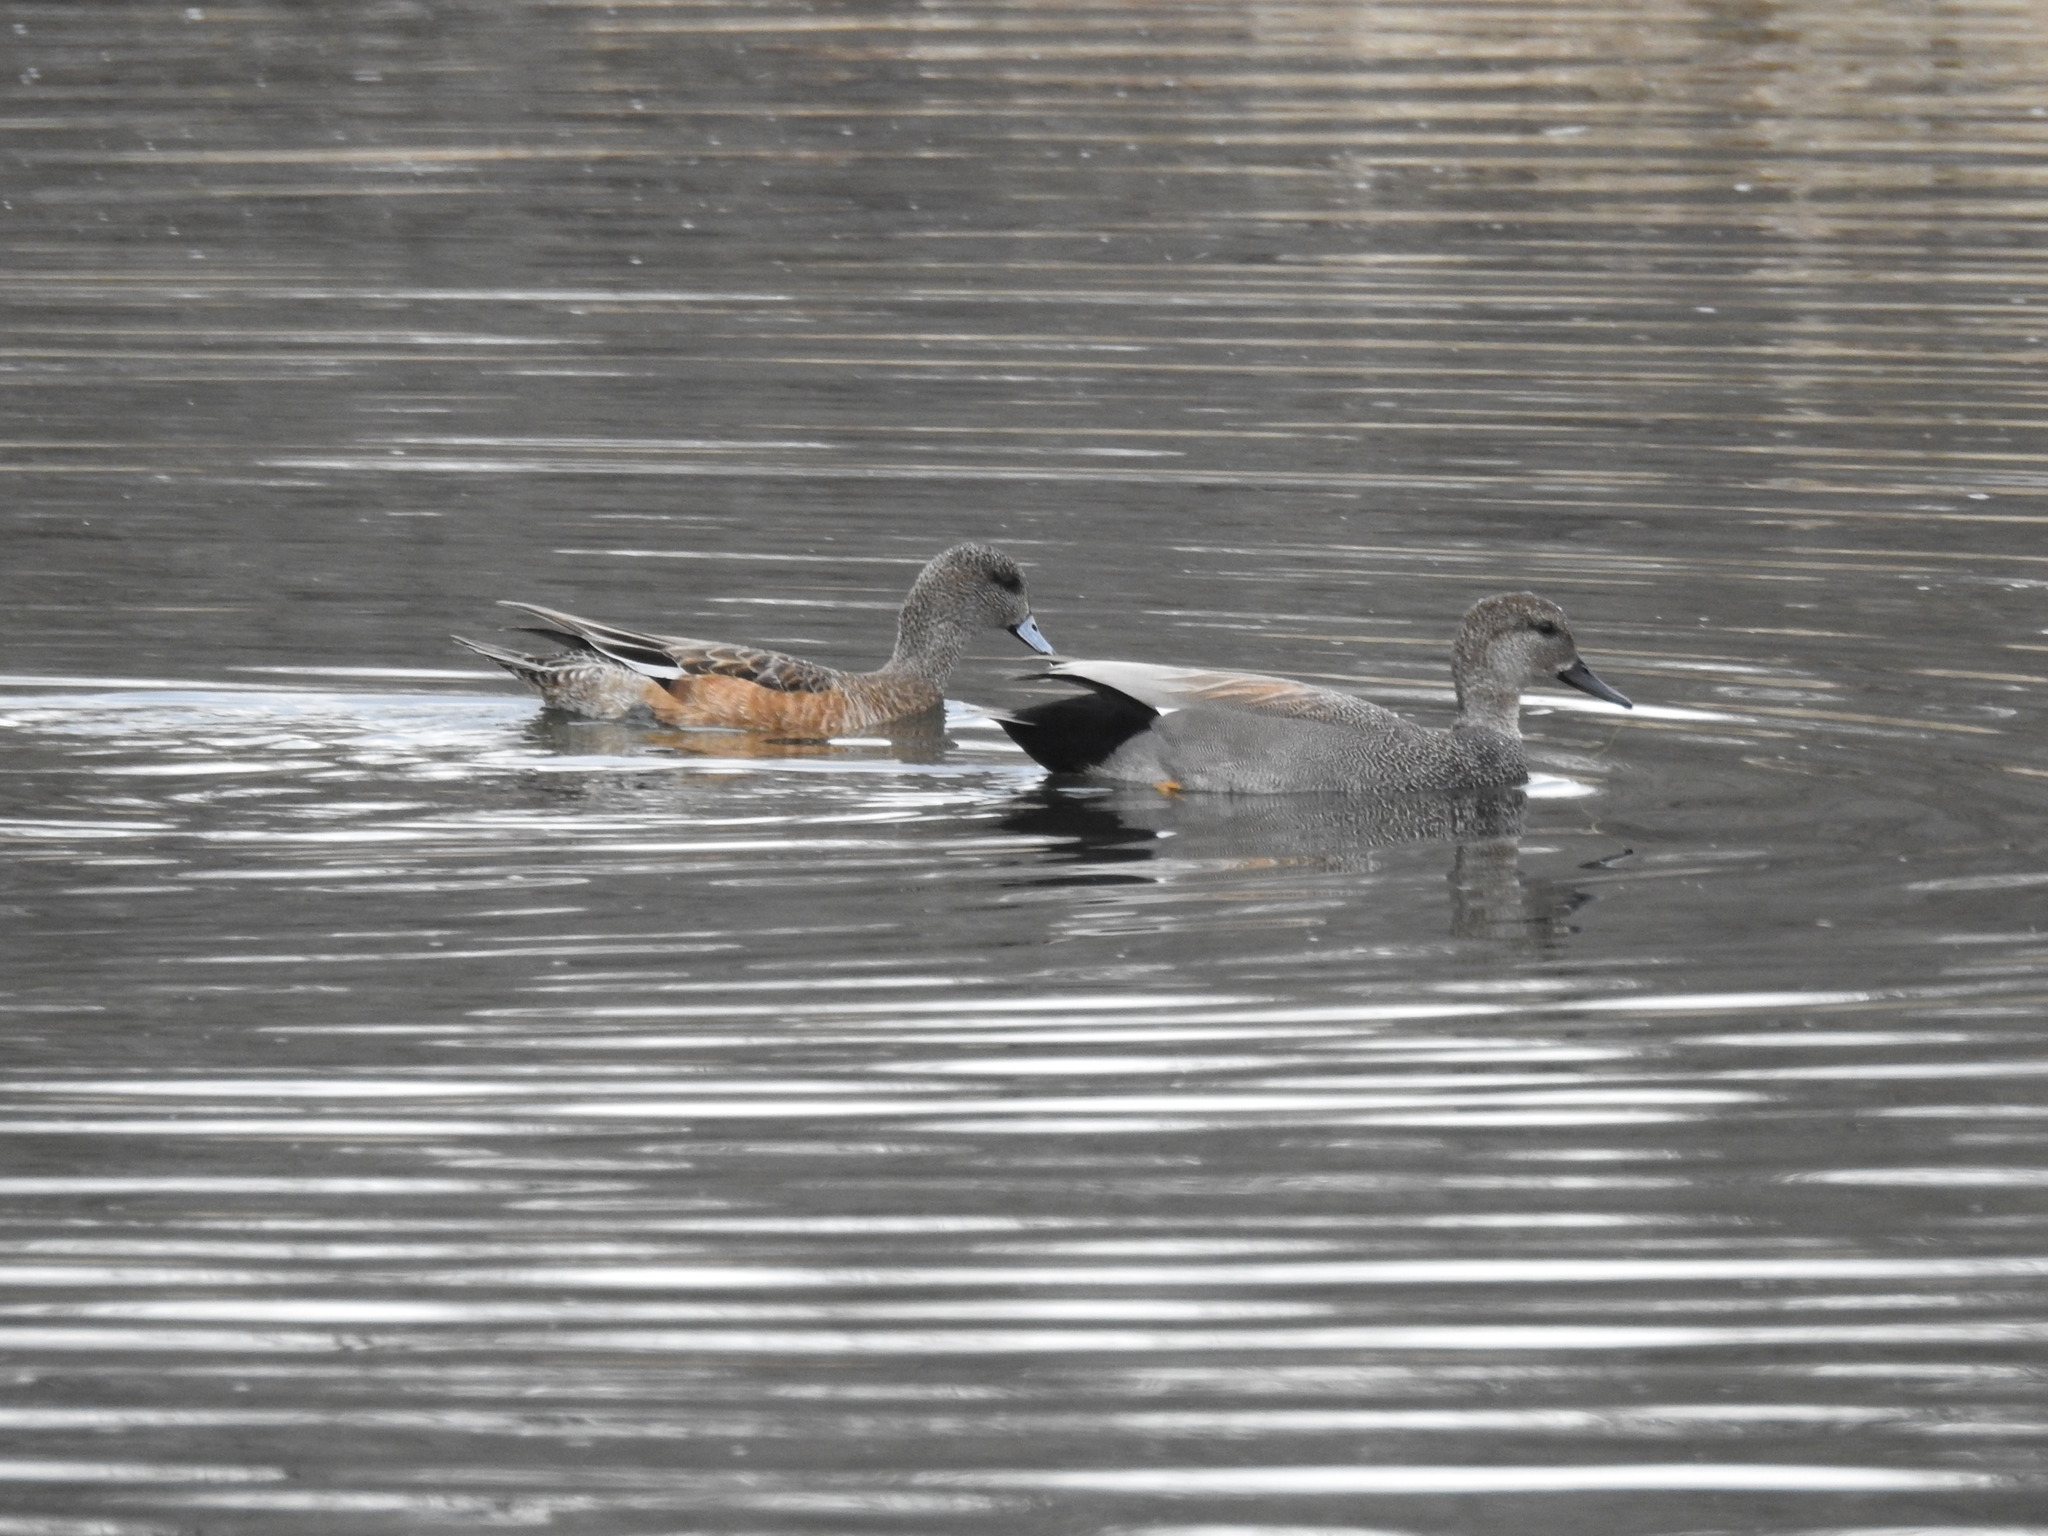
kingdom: Animalia
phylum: Chordata
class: Aves
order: Anseriformes
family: Anatidae
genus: Mareca
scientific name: Mareca americana
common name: American wigeon
